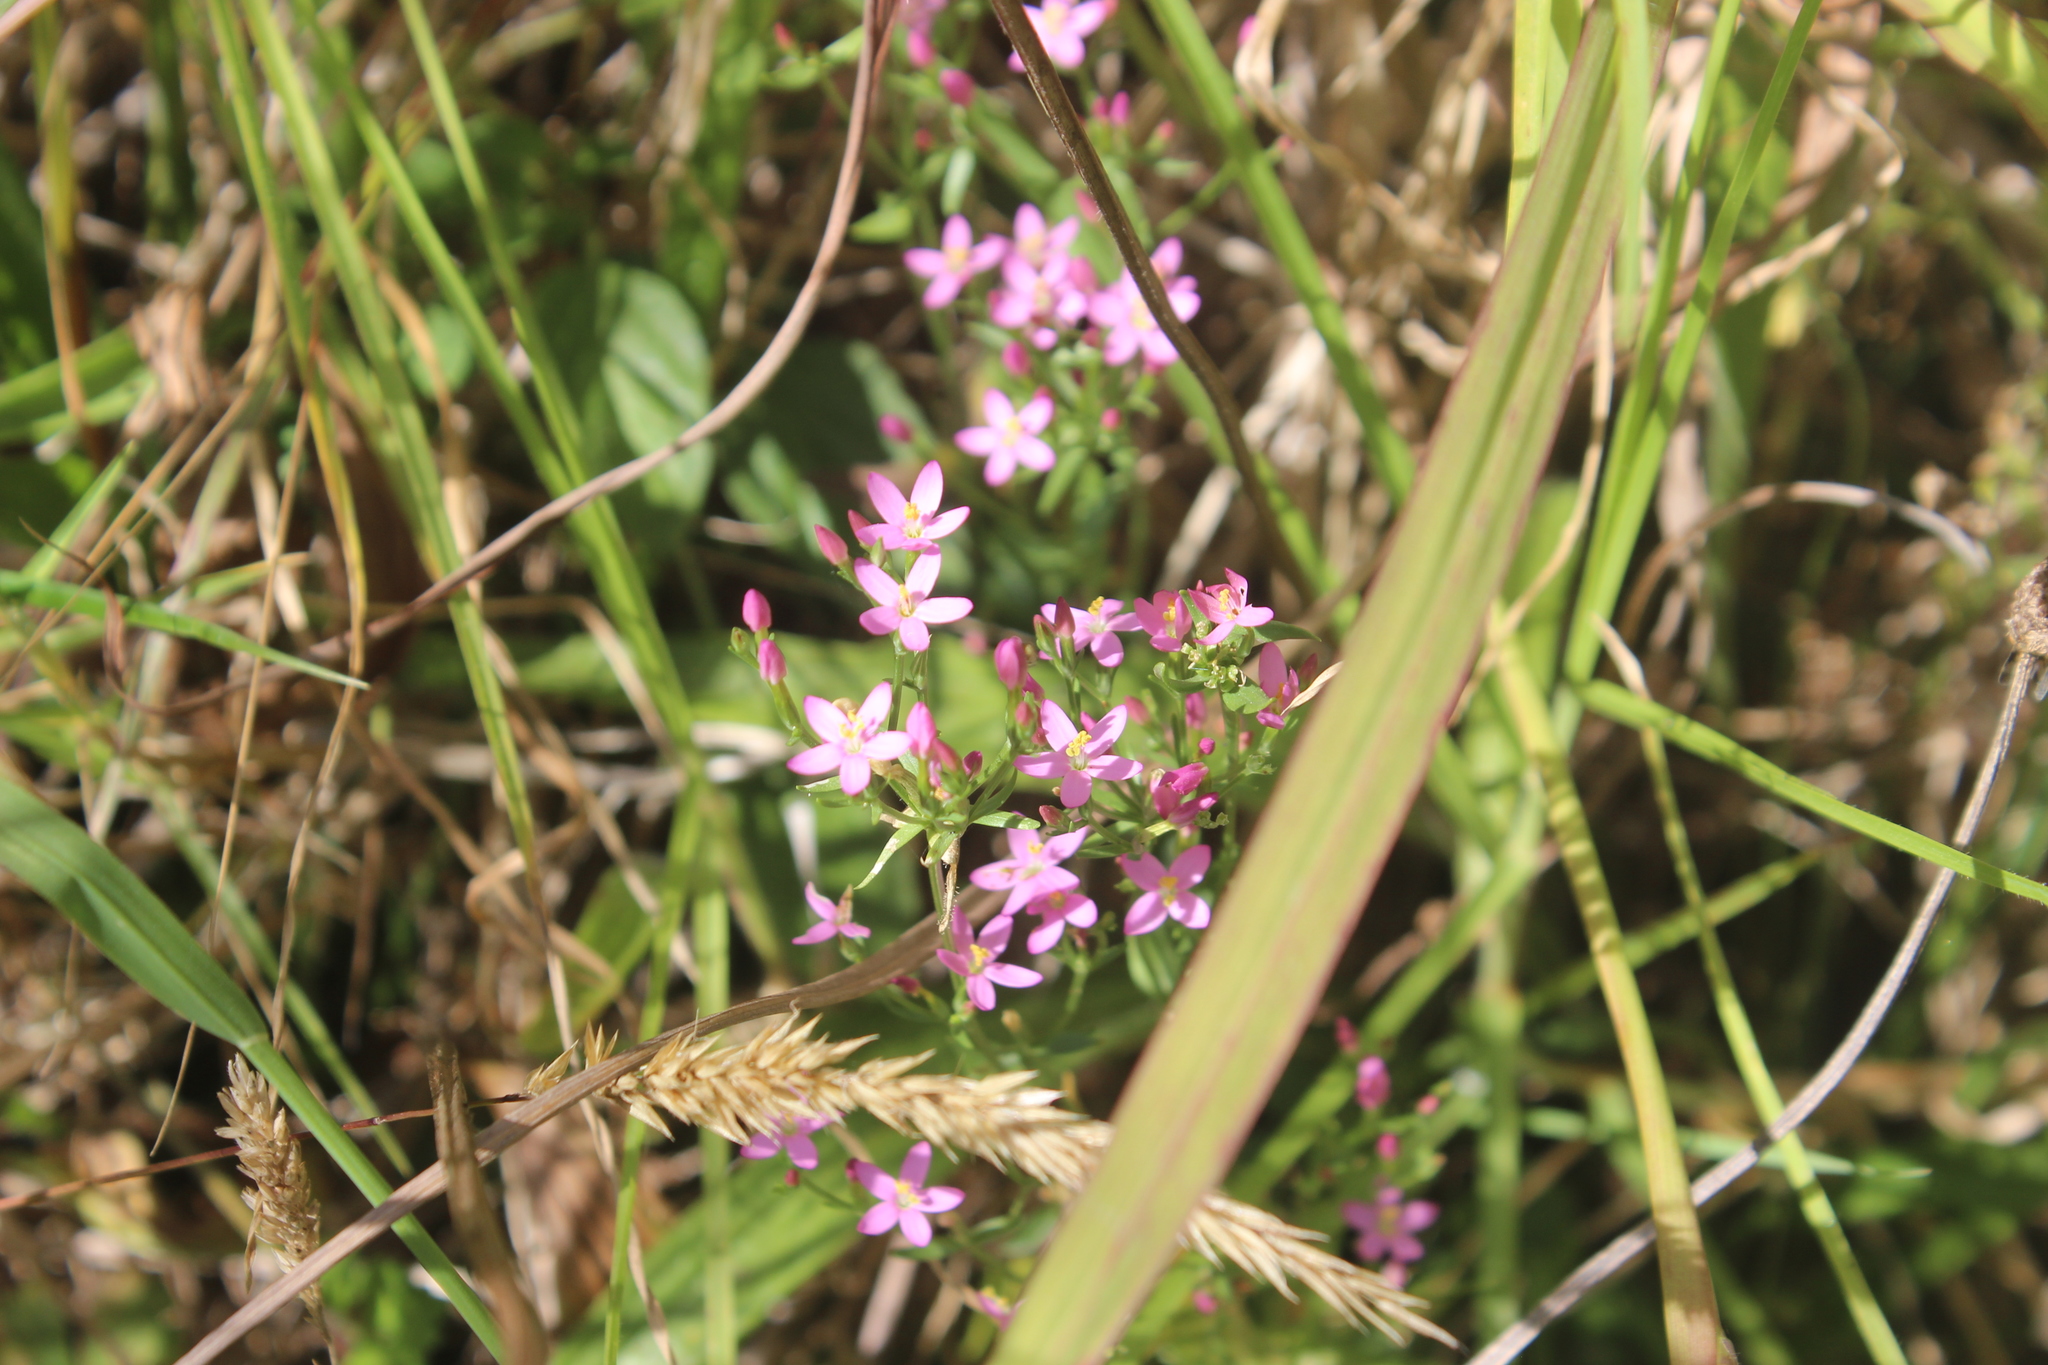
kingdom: Plantae
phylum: Tracheophyta
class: Magnoliopsida
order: Gentianales
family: Gentianaceae
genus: Centaurium
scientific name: Centaurium erythraea
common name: Common centaury
